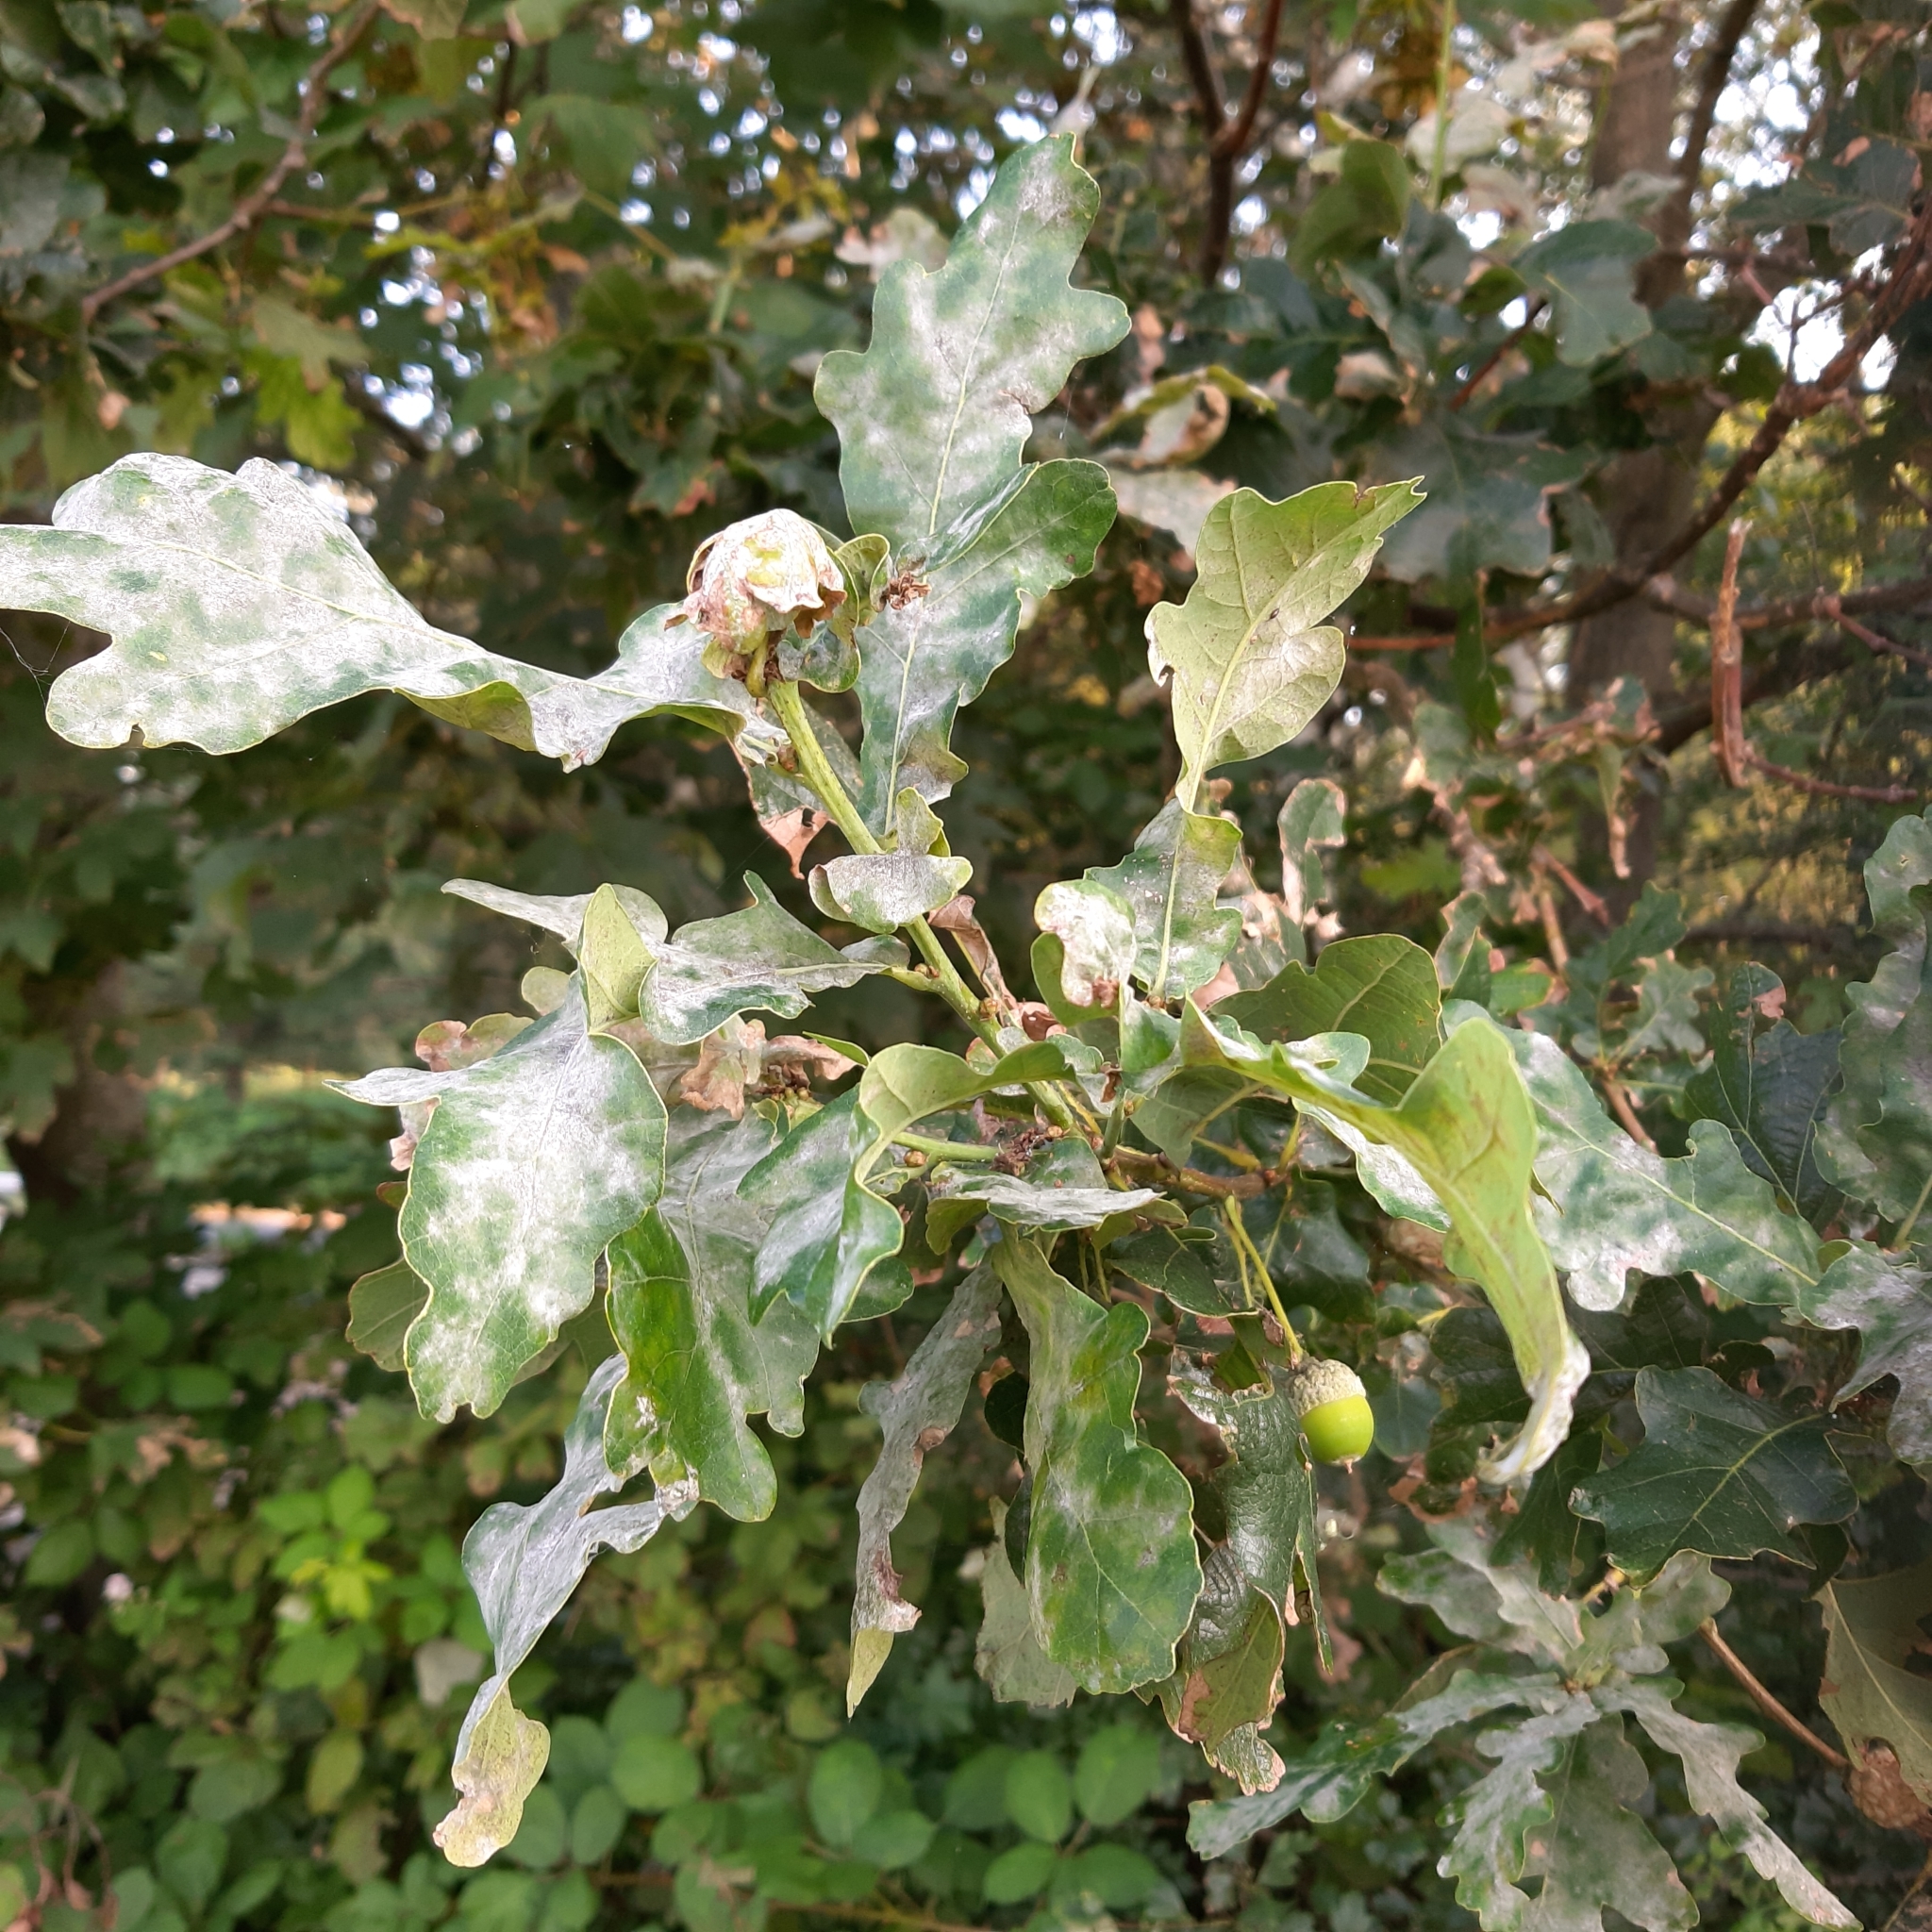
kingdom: Plantae
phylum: Tracheophyta
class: Magnoliopsida
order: Fagales
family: Fagaceae
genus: Quercus
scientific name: Quercus robur
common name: Pedunculate oak
